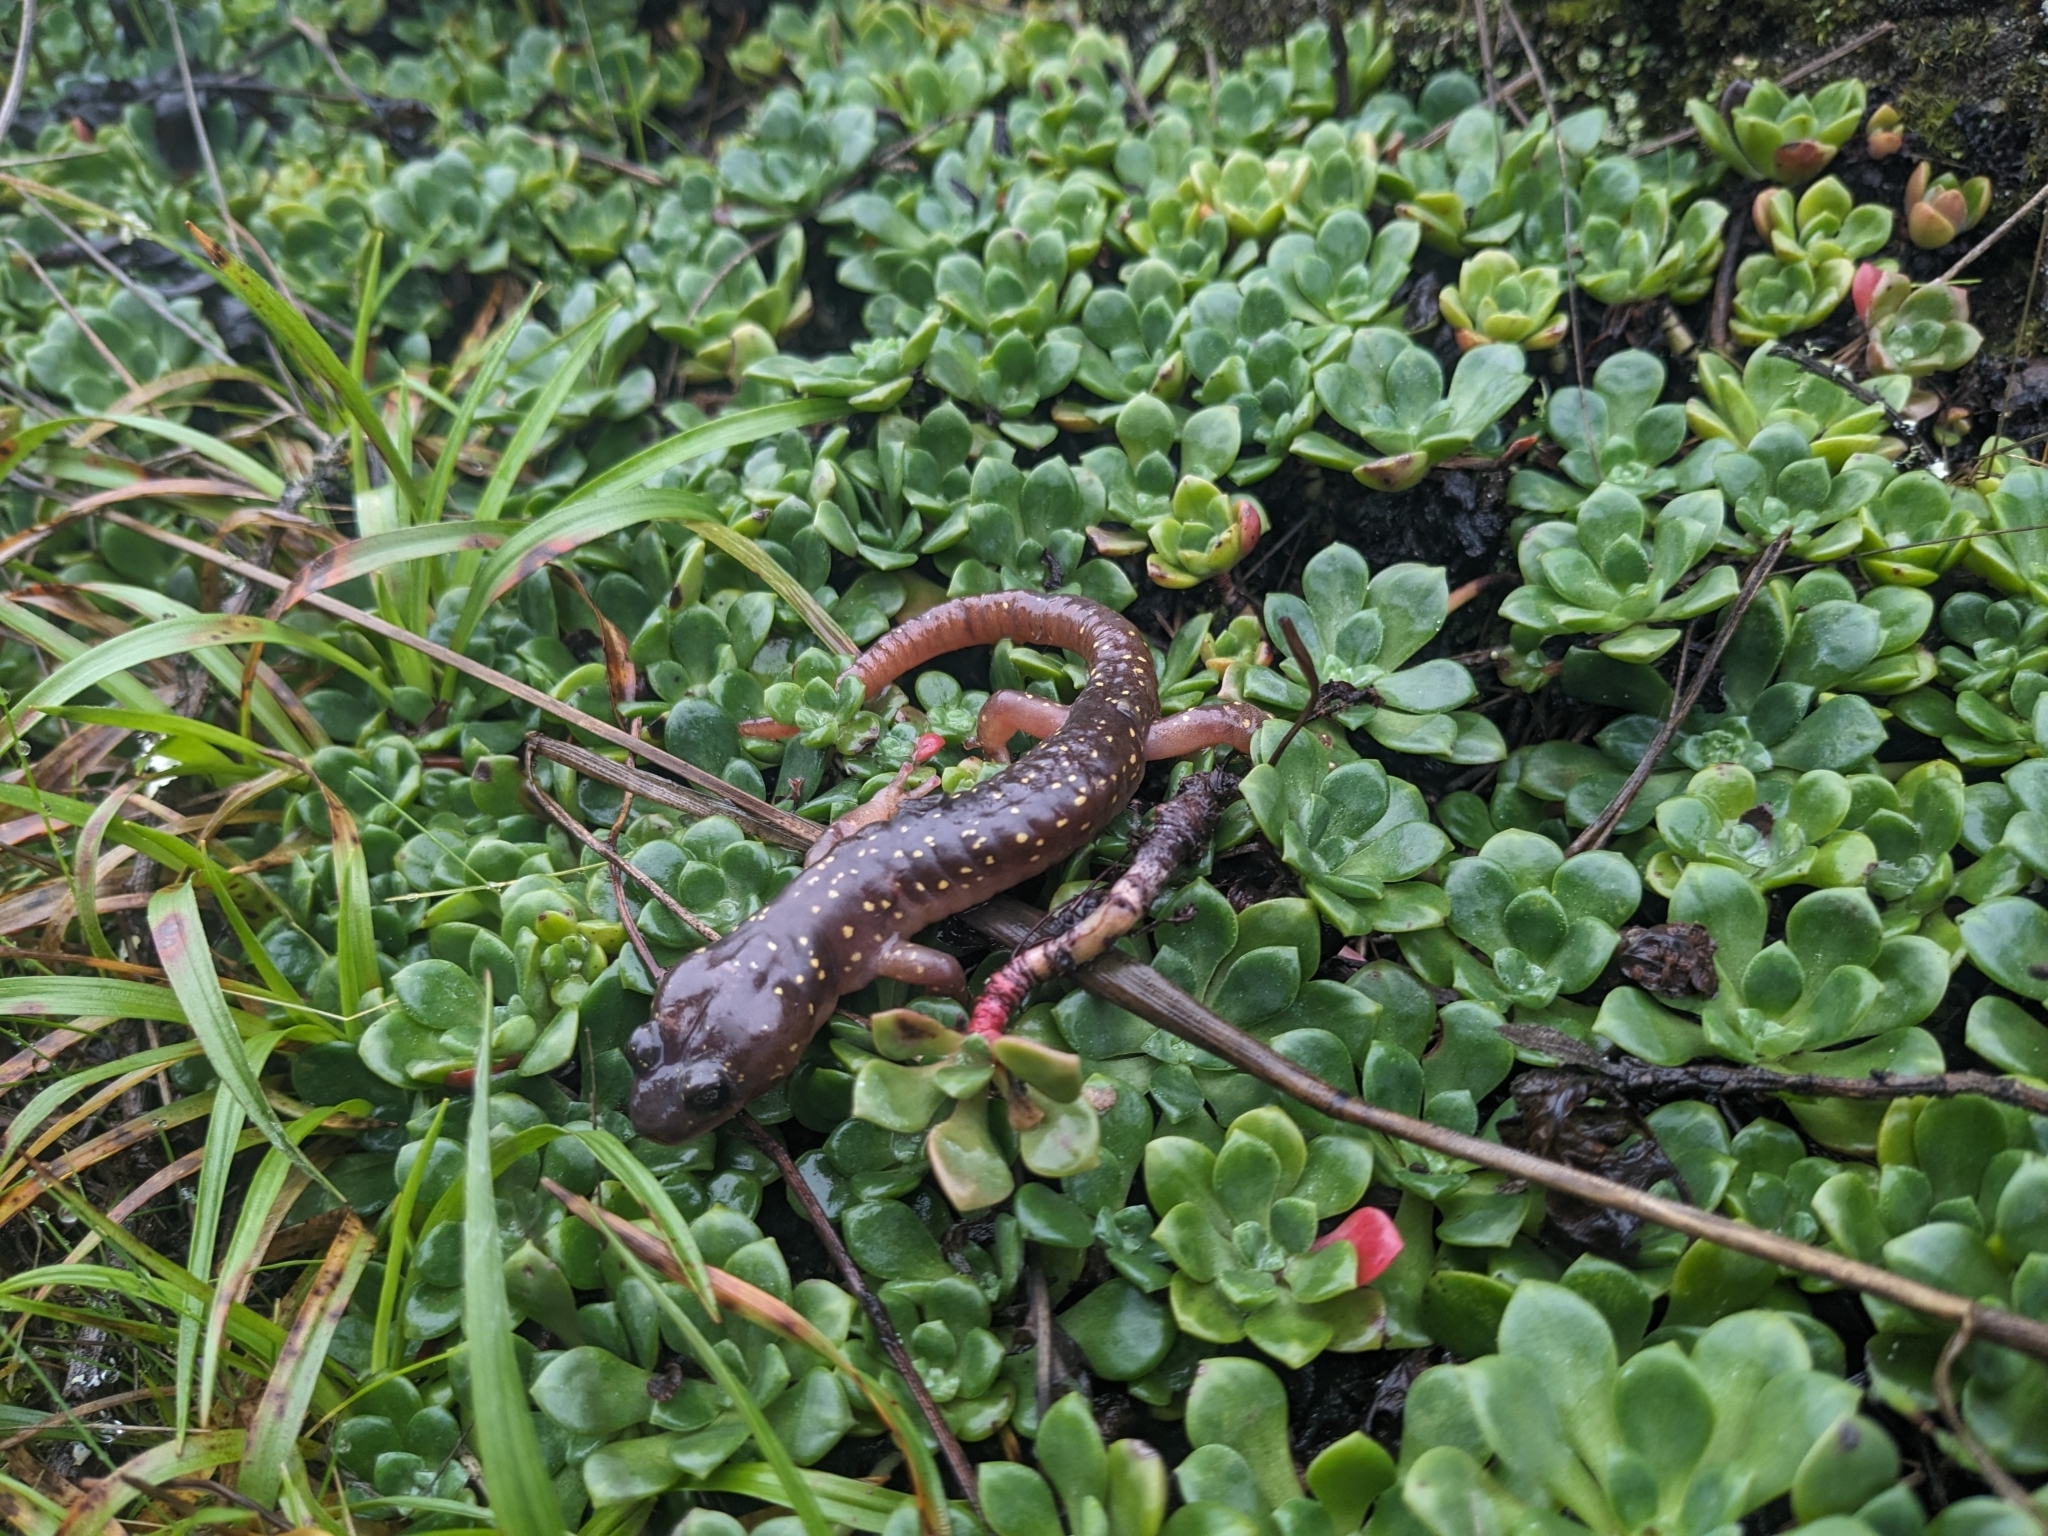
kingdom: Animalia
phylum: Chordata
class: Amphibia
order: Caudata
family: Plethodontidae
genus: Aneides
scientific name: Aneides lugubris
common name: Arboreal salamander
